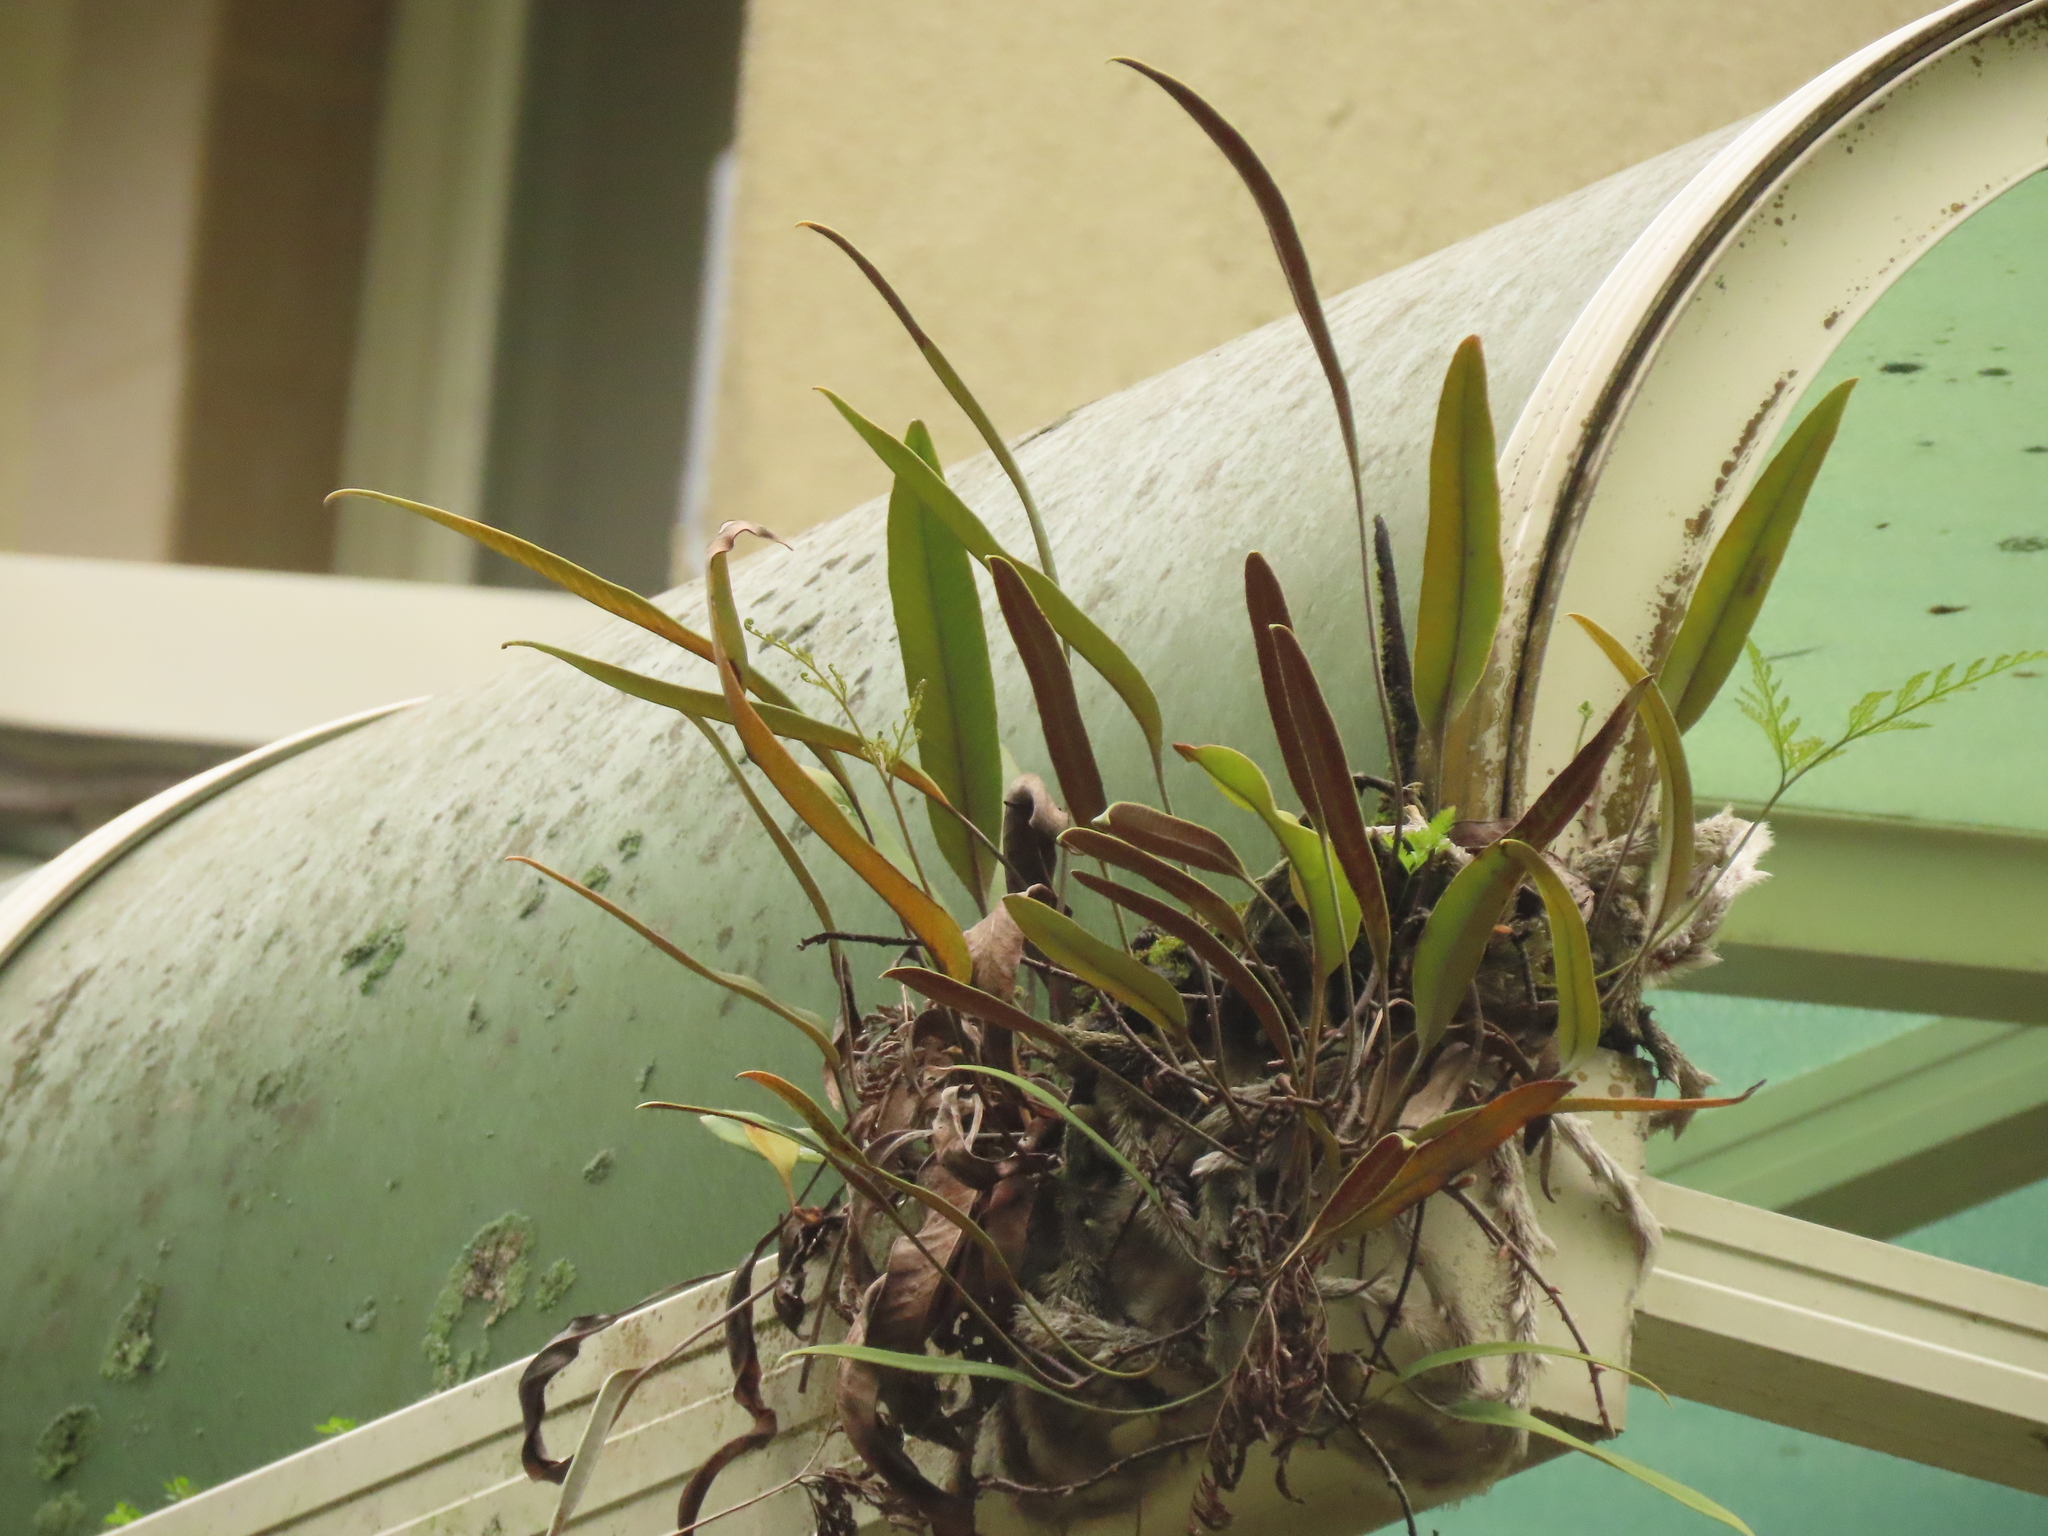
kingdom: Plantae
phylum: Tracheophyta
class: Polypodiopsida
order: Polypodiales
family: Polypodiaceae
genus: Pyrrosia
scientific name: Pyrrosia lingua
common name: Felt fern
